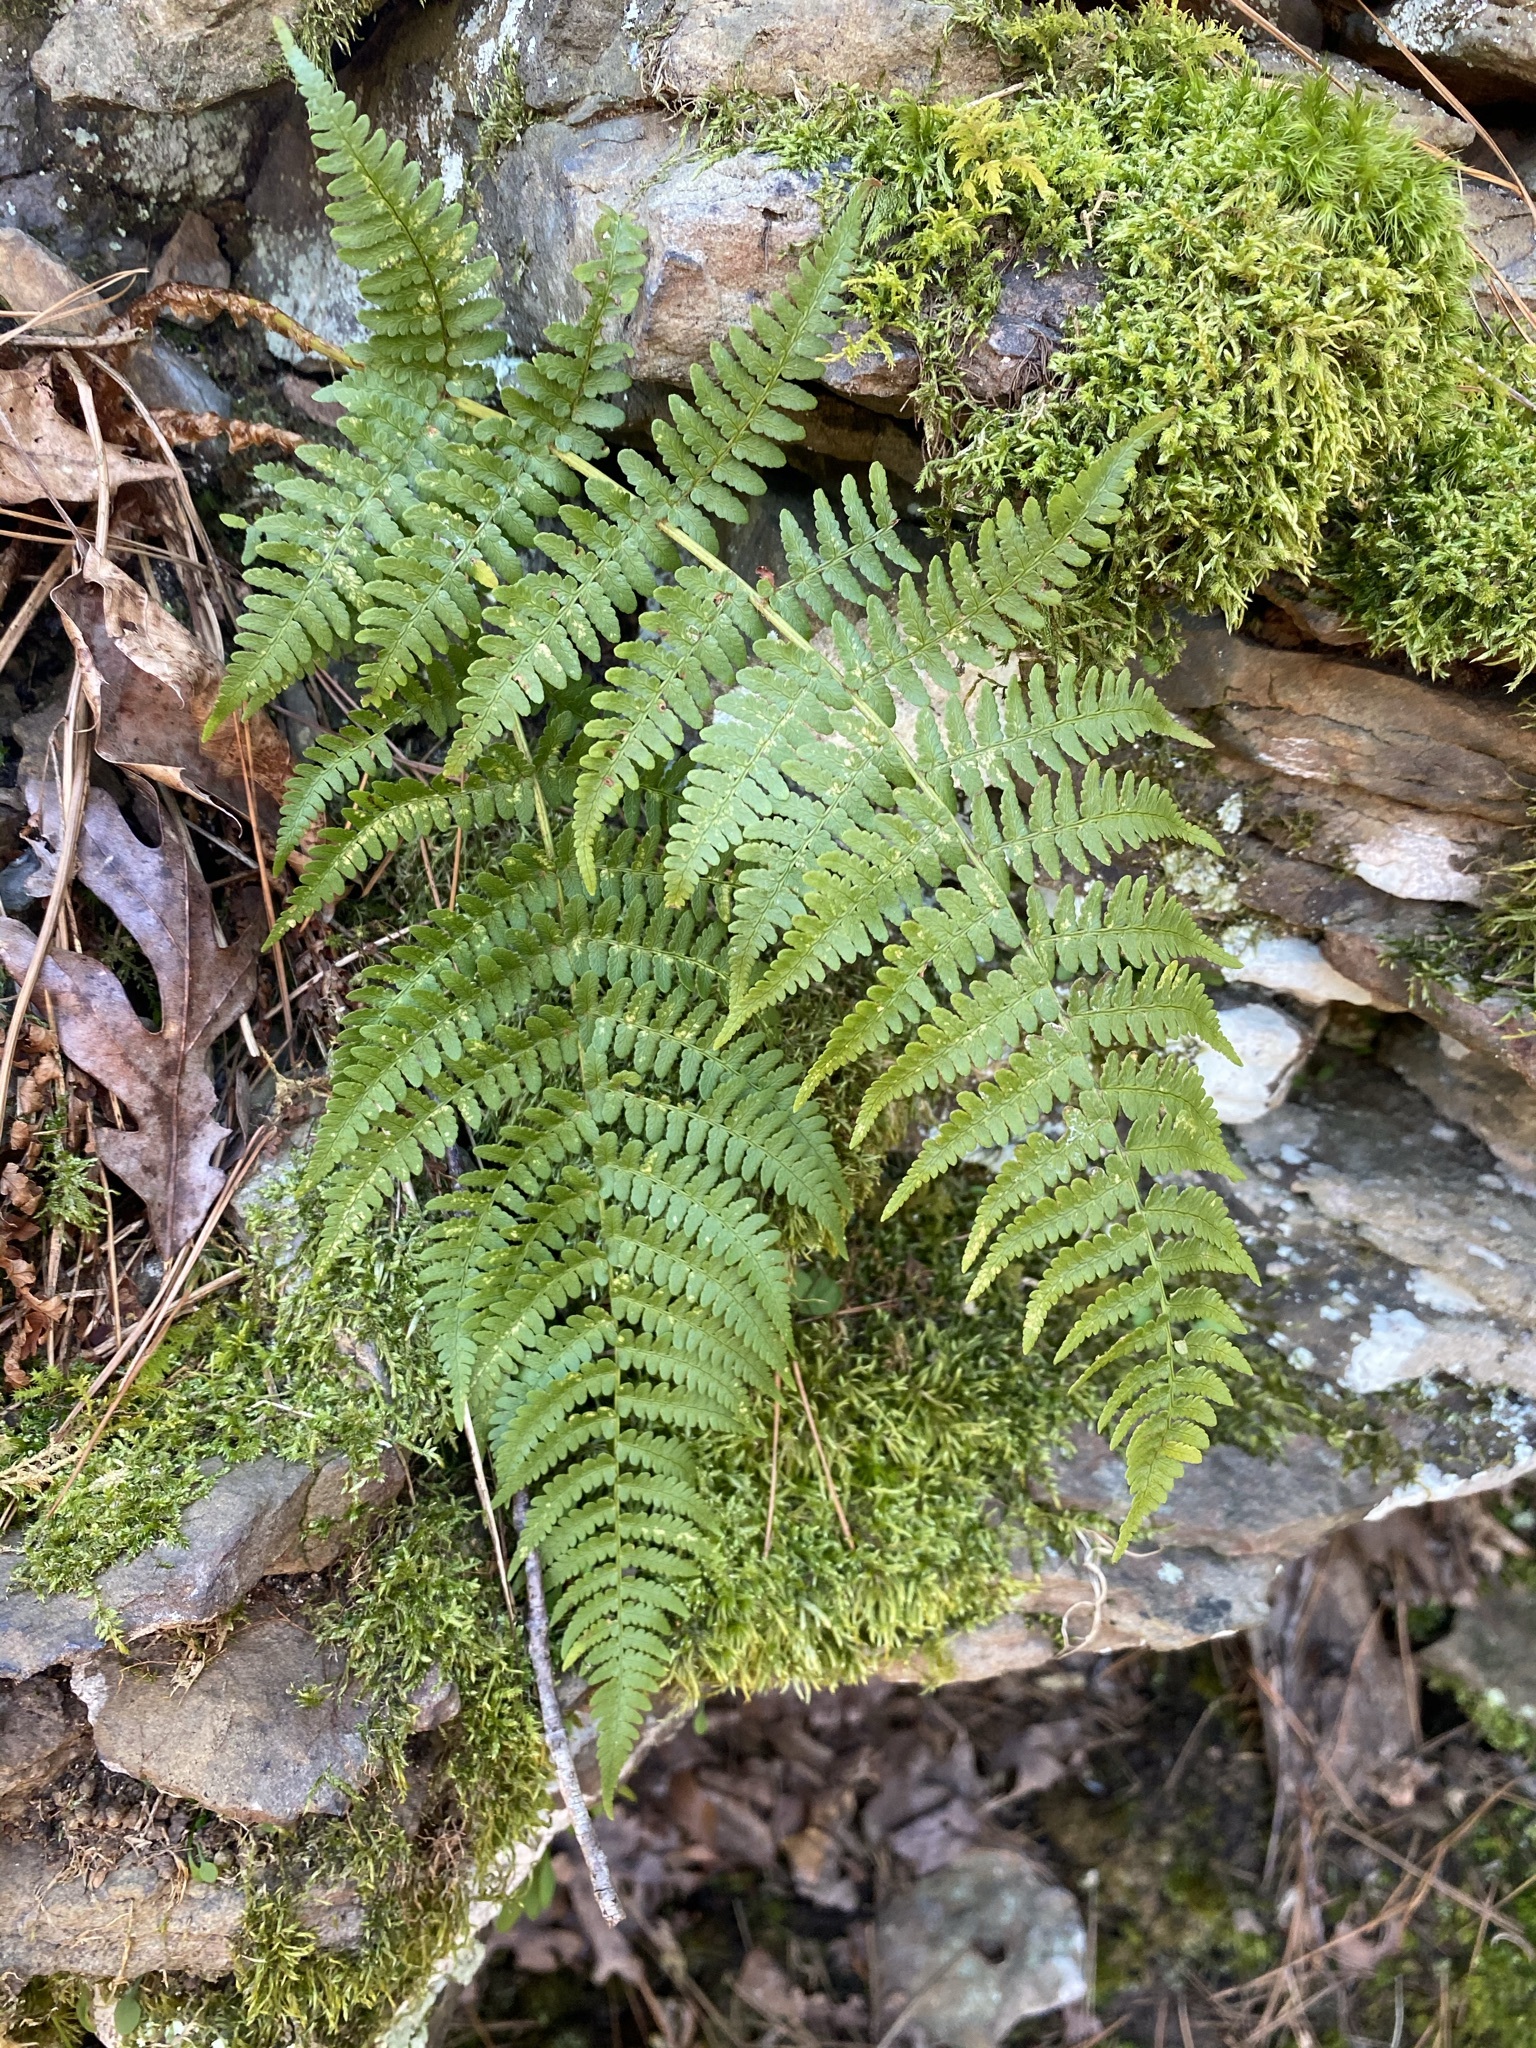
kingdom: Plantae
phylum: Tracheophyta
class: Polypodiopsida
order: Polypodiales
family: Dryopteridaceae
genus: Dryopteris
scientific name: Dryopteris marginalis
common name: Marginal wood fern
